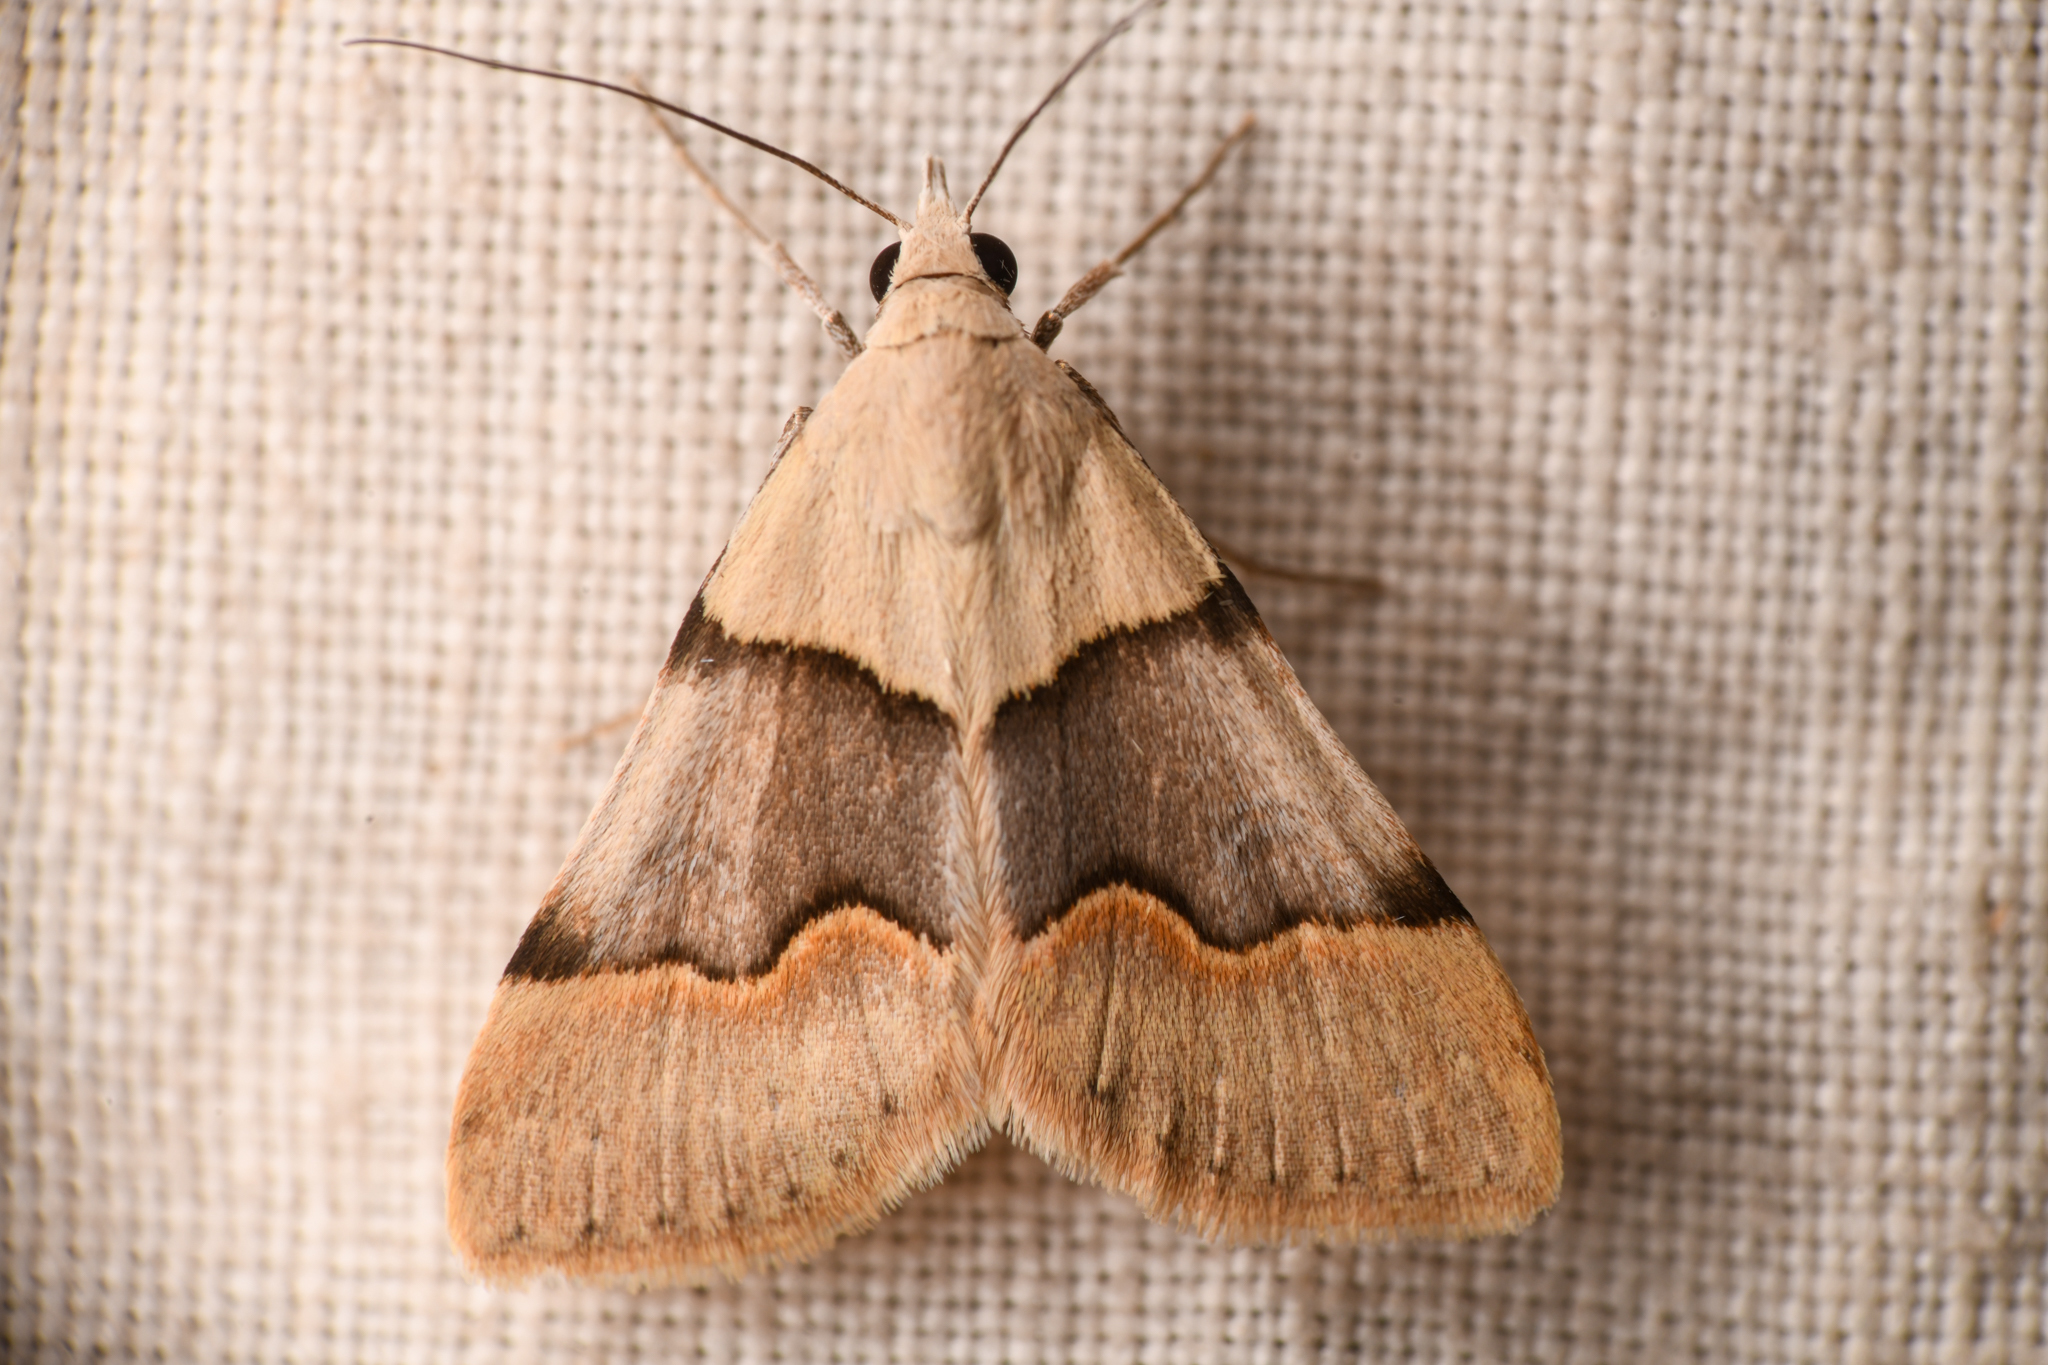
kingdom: Animalia
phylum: Arthropoda
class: Insecta
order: Lepidoptera
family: Erebidae
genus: Hemeroplanis
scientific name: Hemeroplanis incusalis
